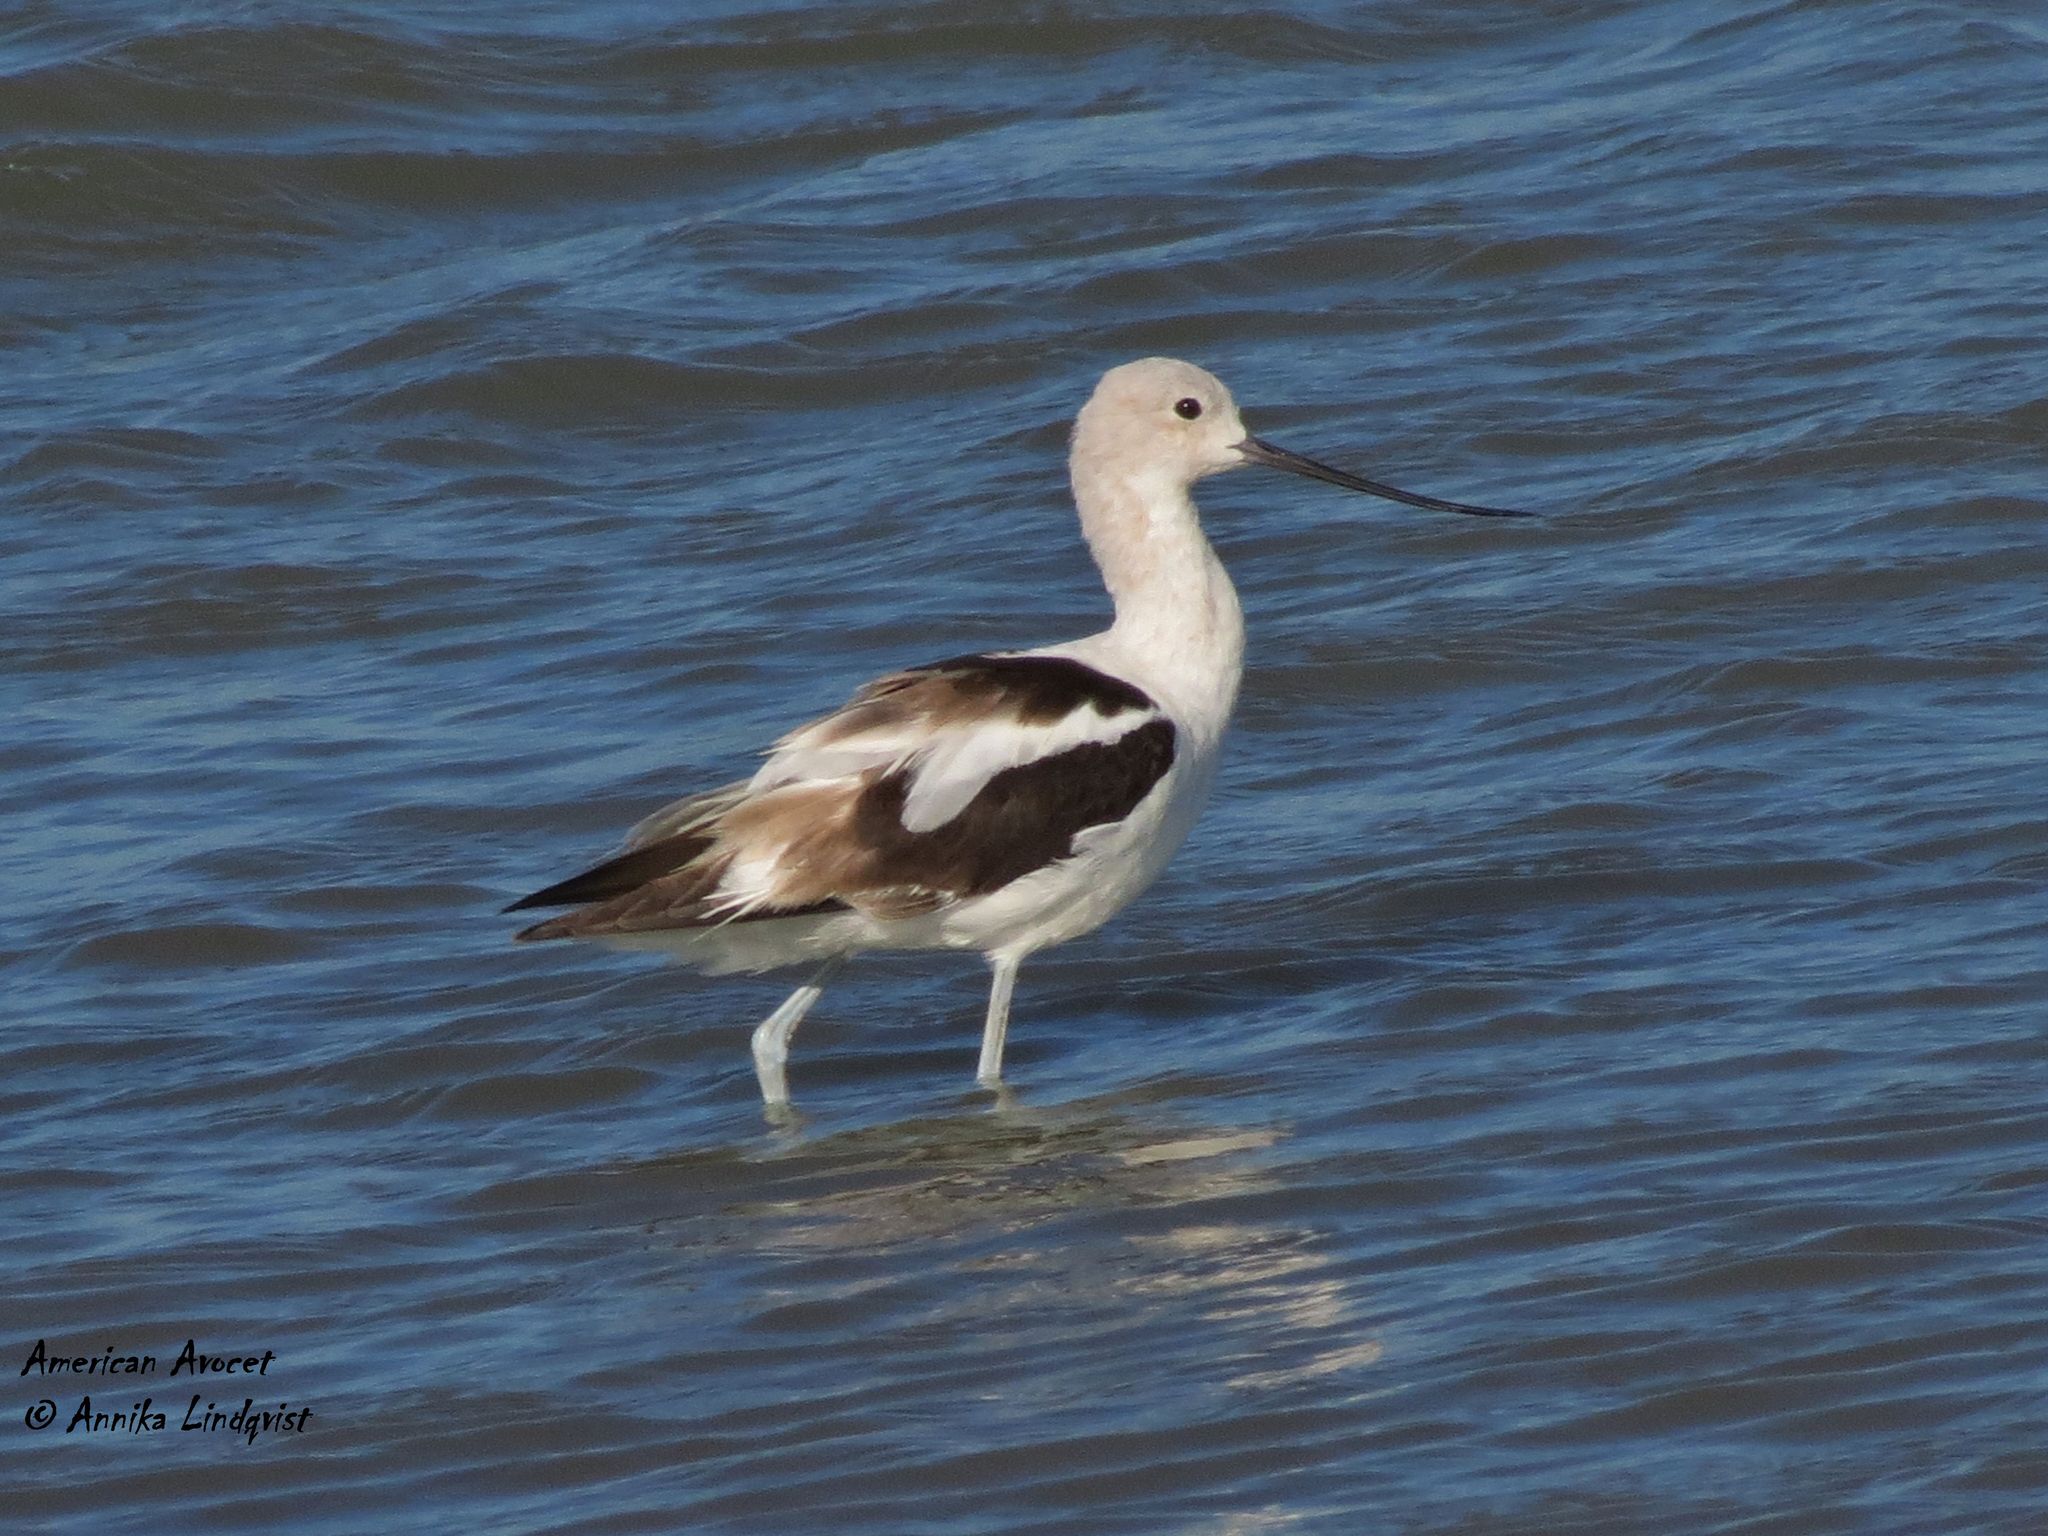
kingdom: Animalia
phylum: Chordata
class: Aves
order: Charadriiformes
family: Recurvirostridae
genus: Recurvirostra
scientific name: Recurvirostra americana
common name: American avocet
